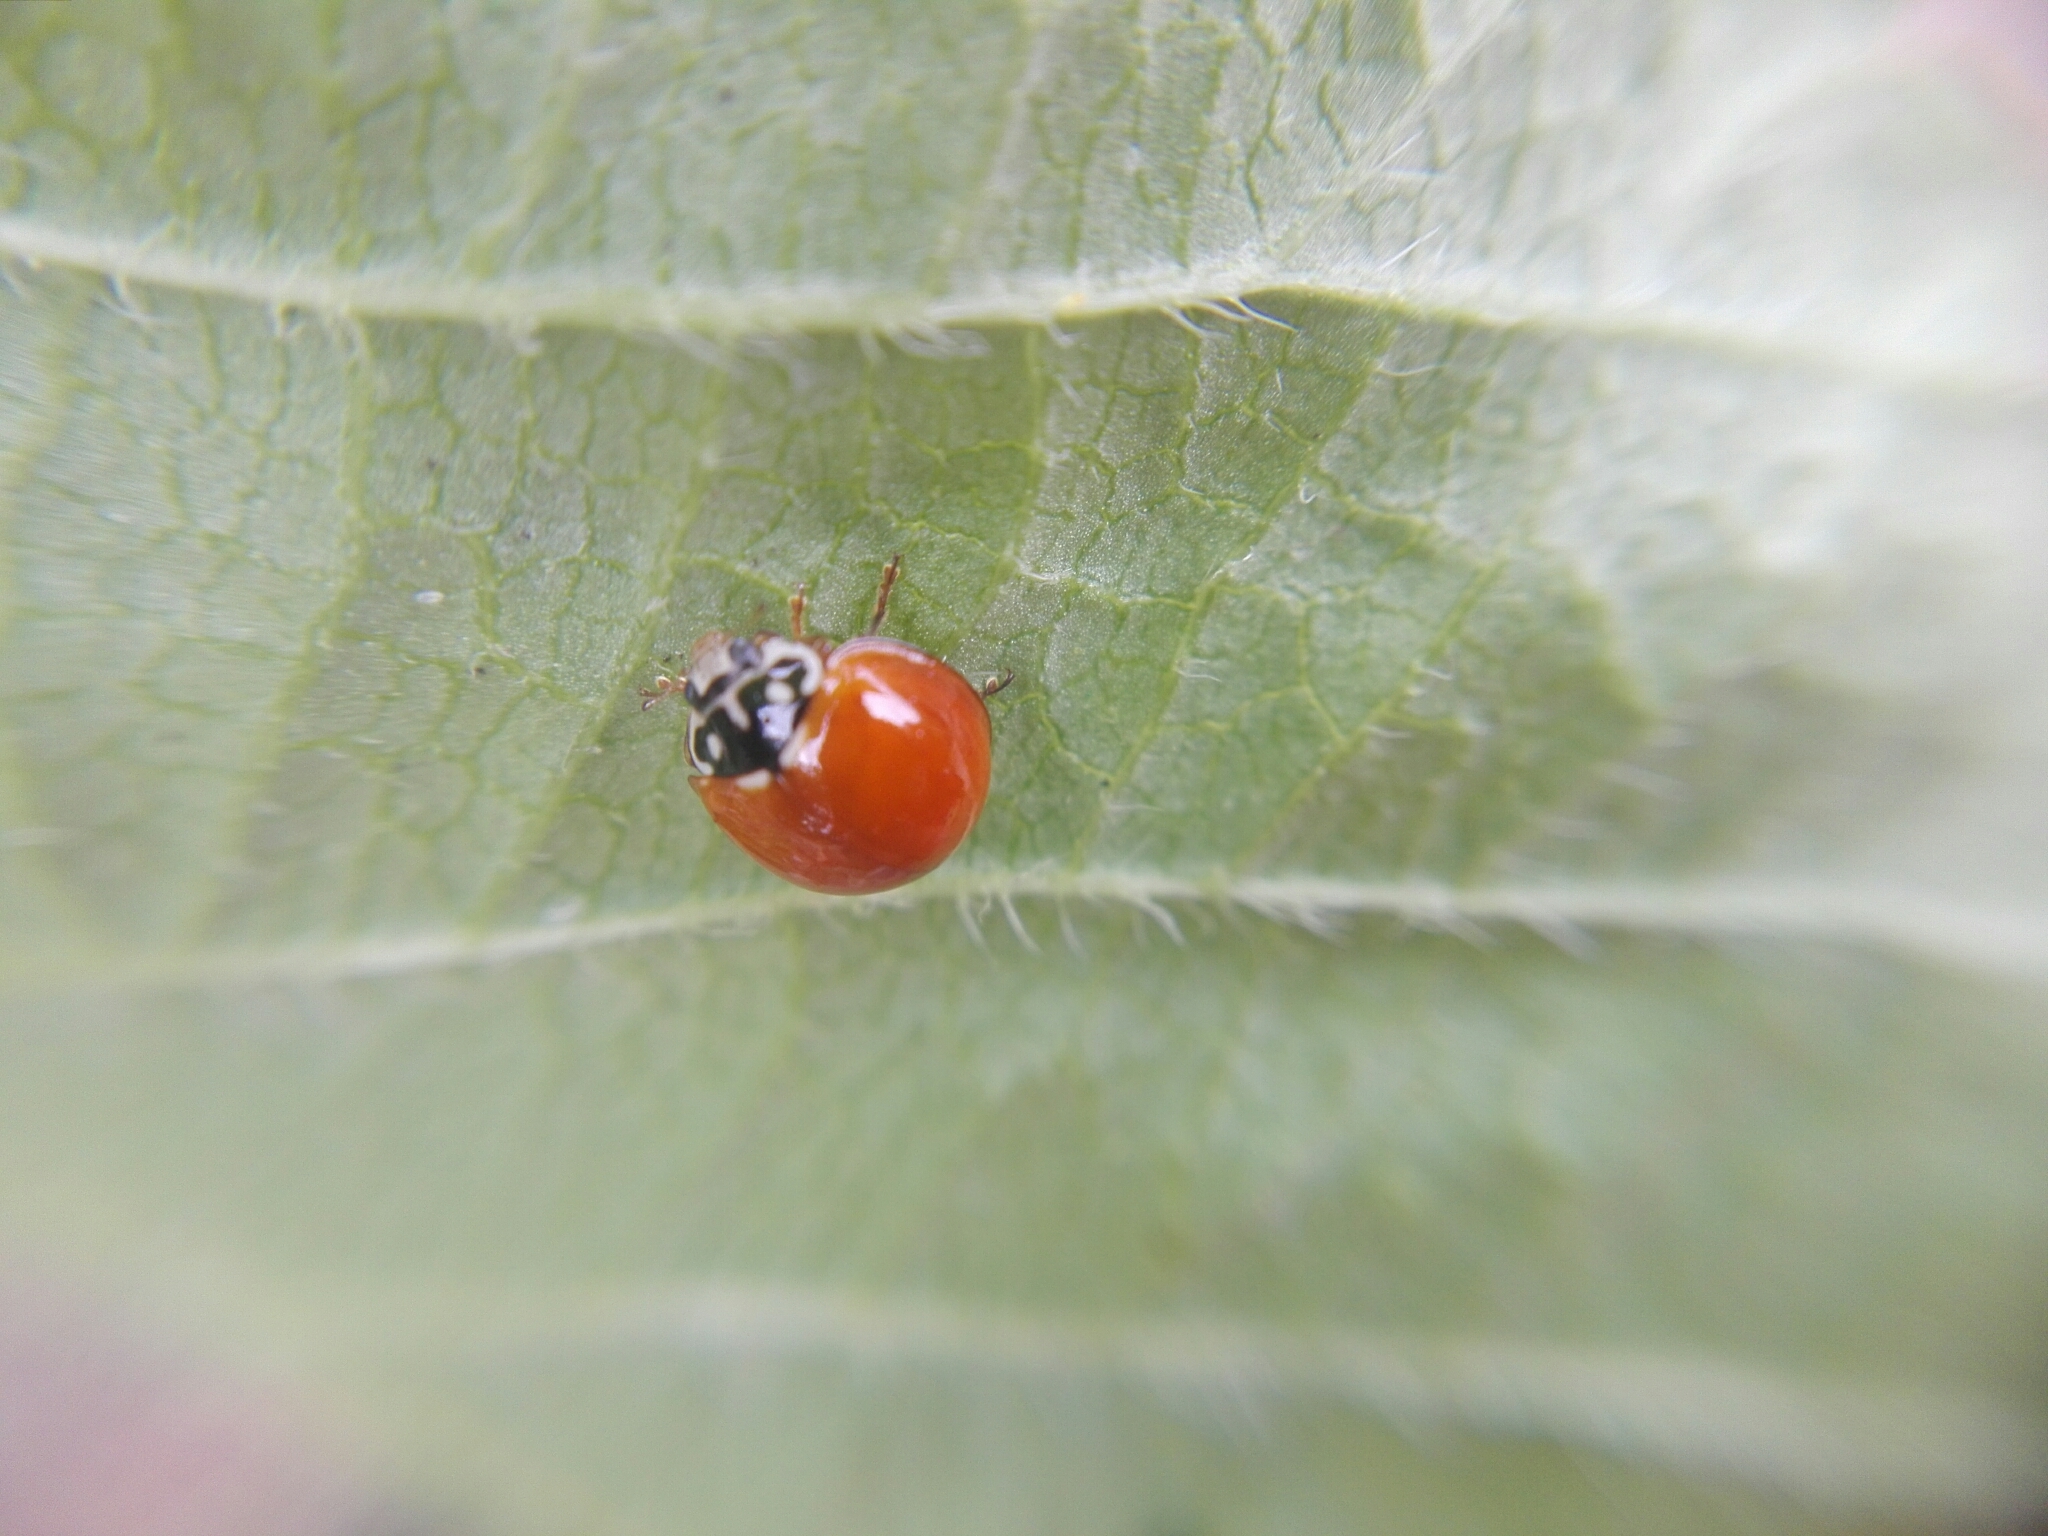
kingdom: Animalia
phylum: Arthropoda
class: Insecta
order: Coleoptera
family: Coccinellidae
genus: Cycloneda
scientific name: Cycloneda sanguinea
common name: Ladybird beetle
